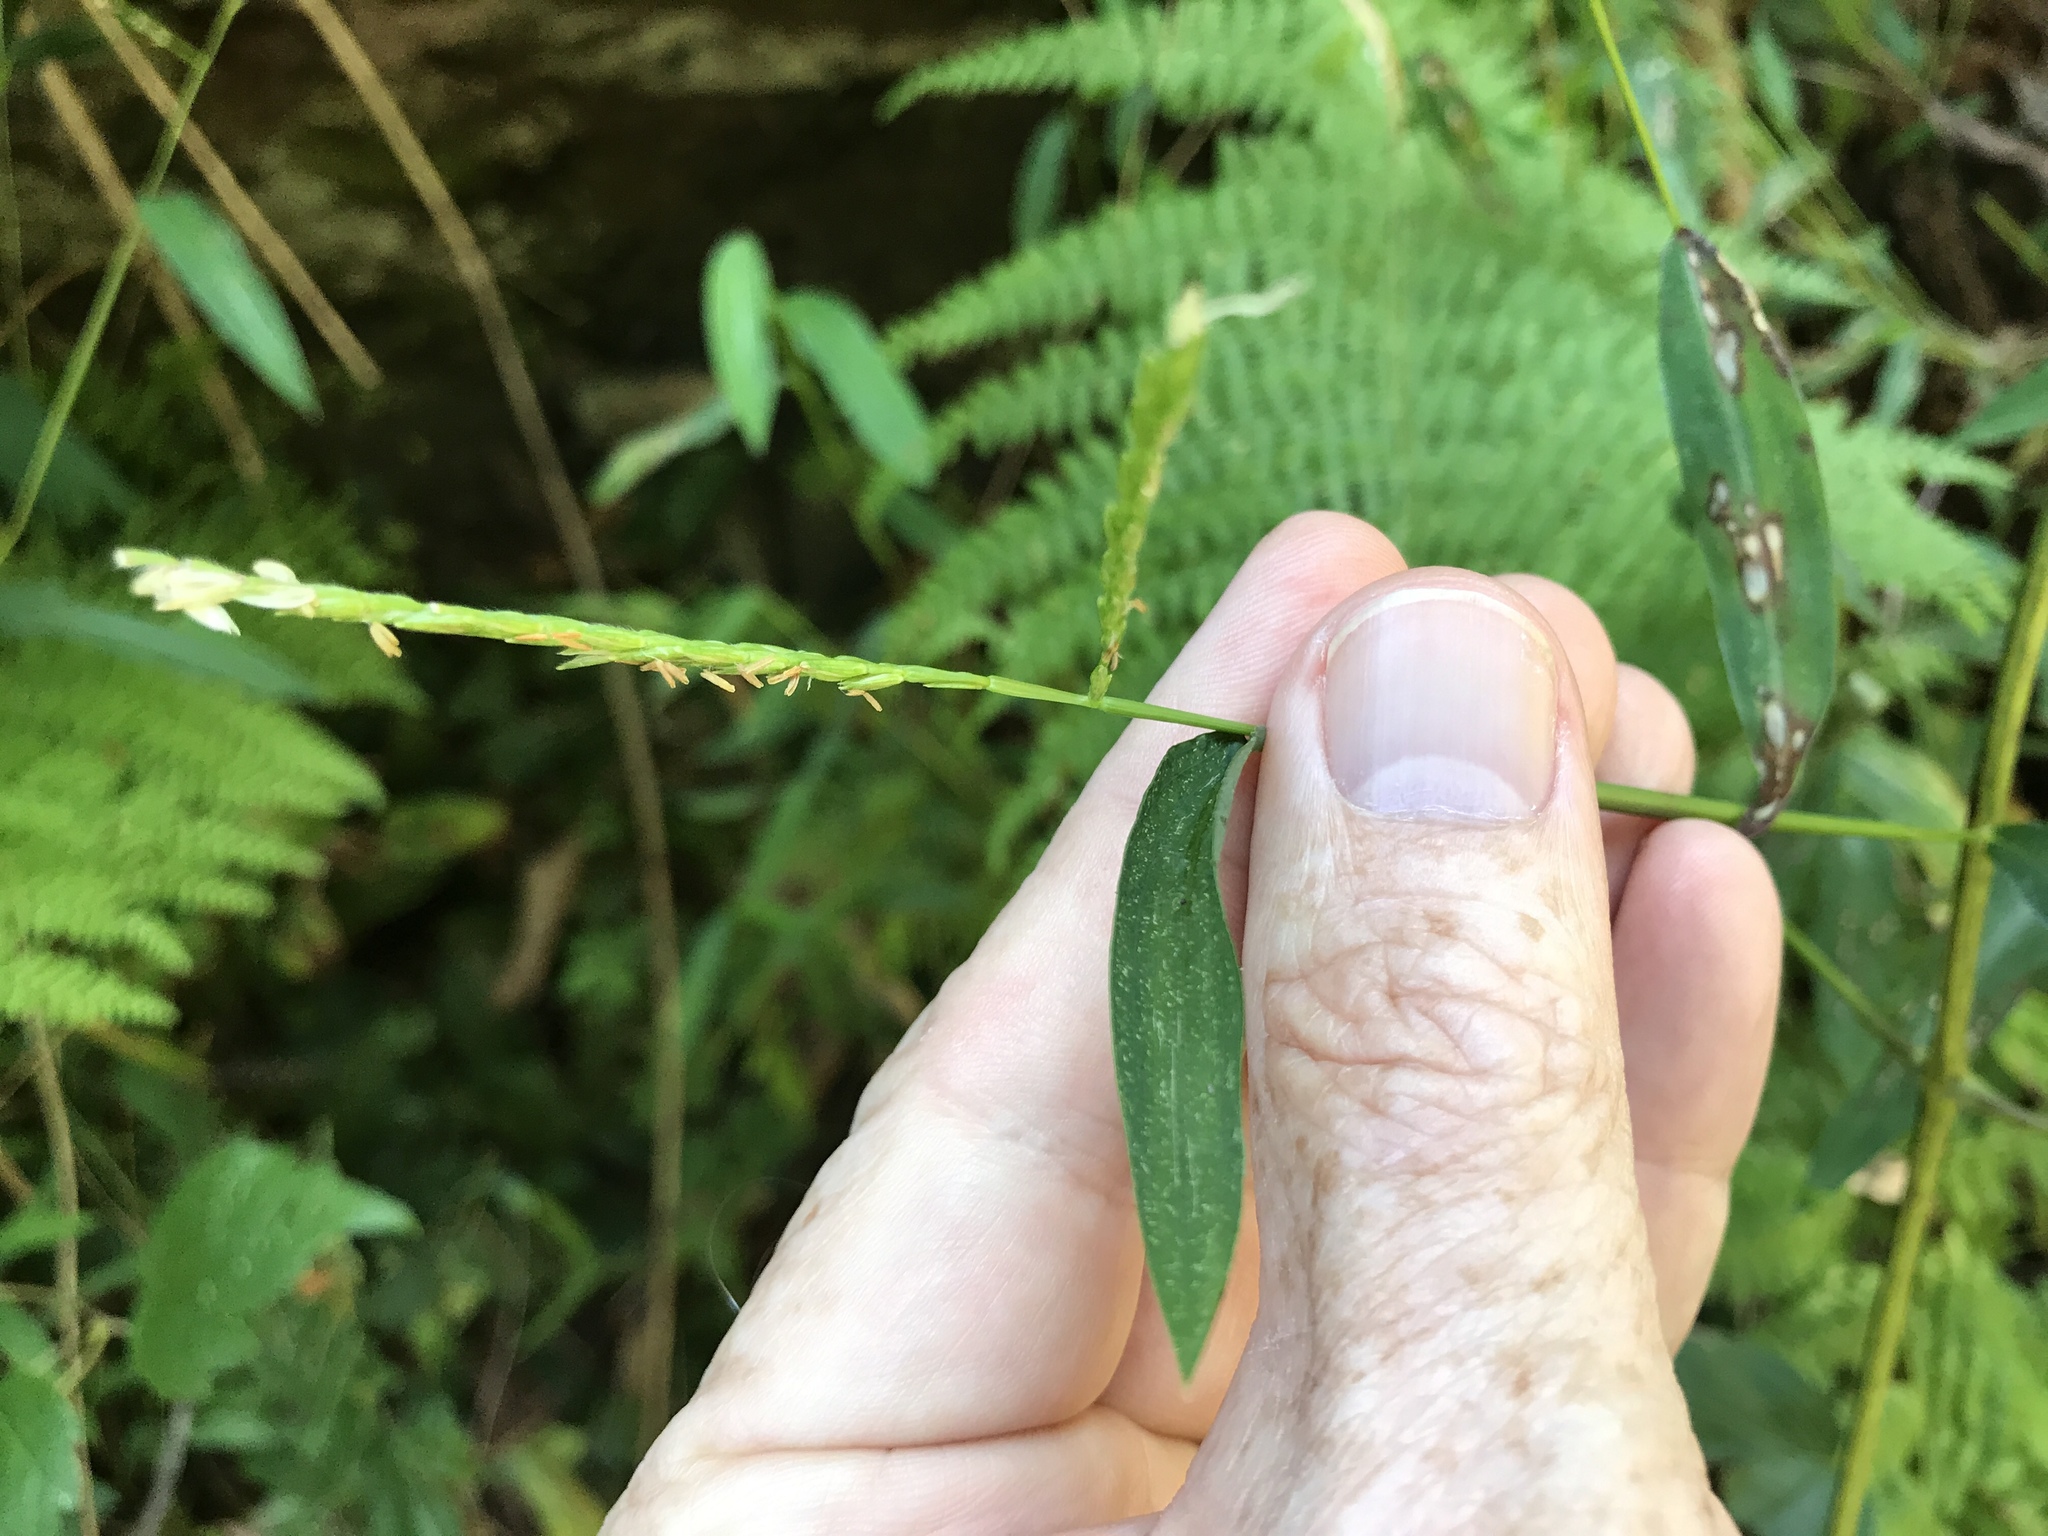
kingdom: Plantae
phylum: Tracheophyta
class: Liliopsida
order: Poales
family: Poaceae
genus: Microstegium
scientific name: Microstegium vimineum
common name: Japanese stiltgrass
